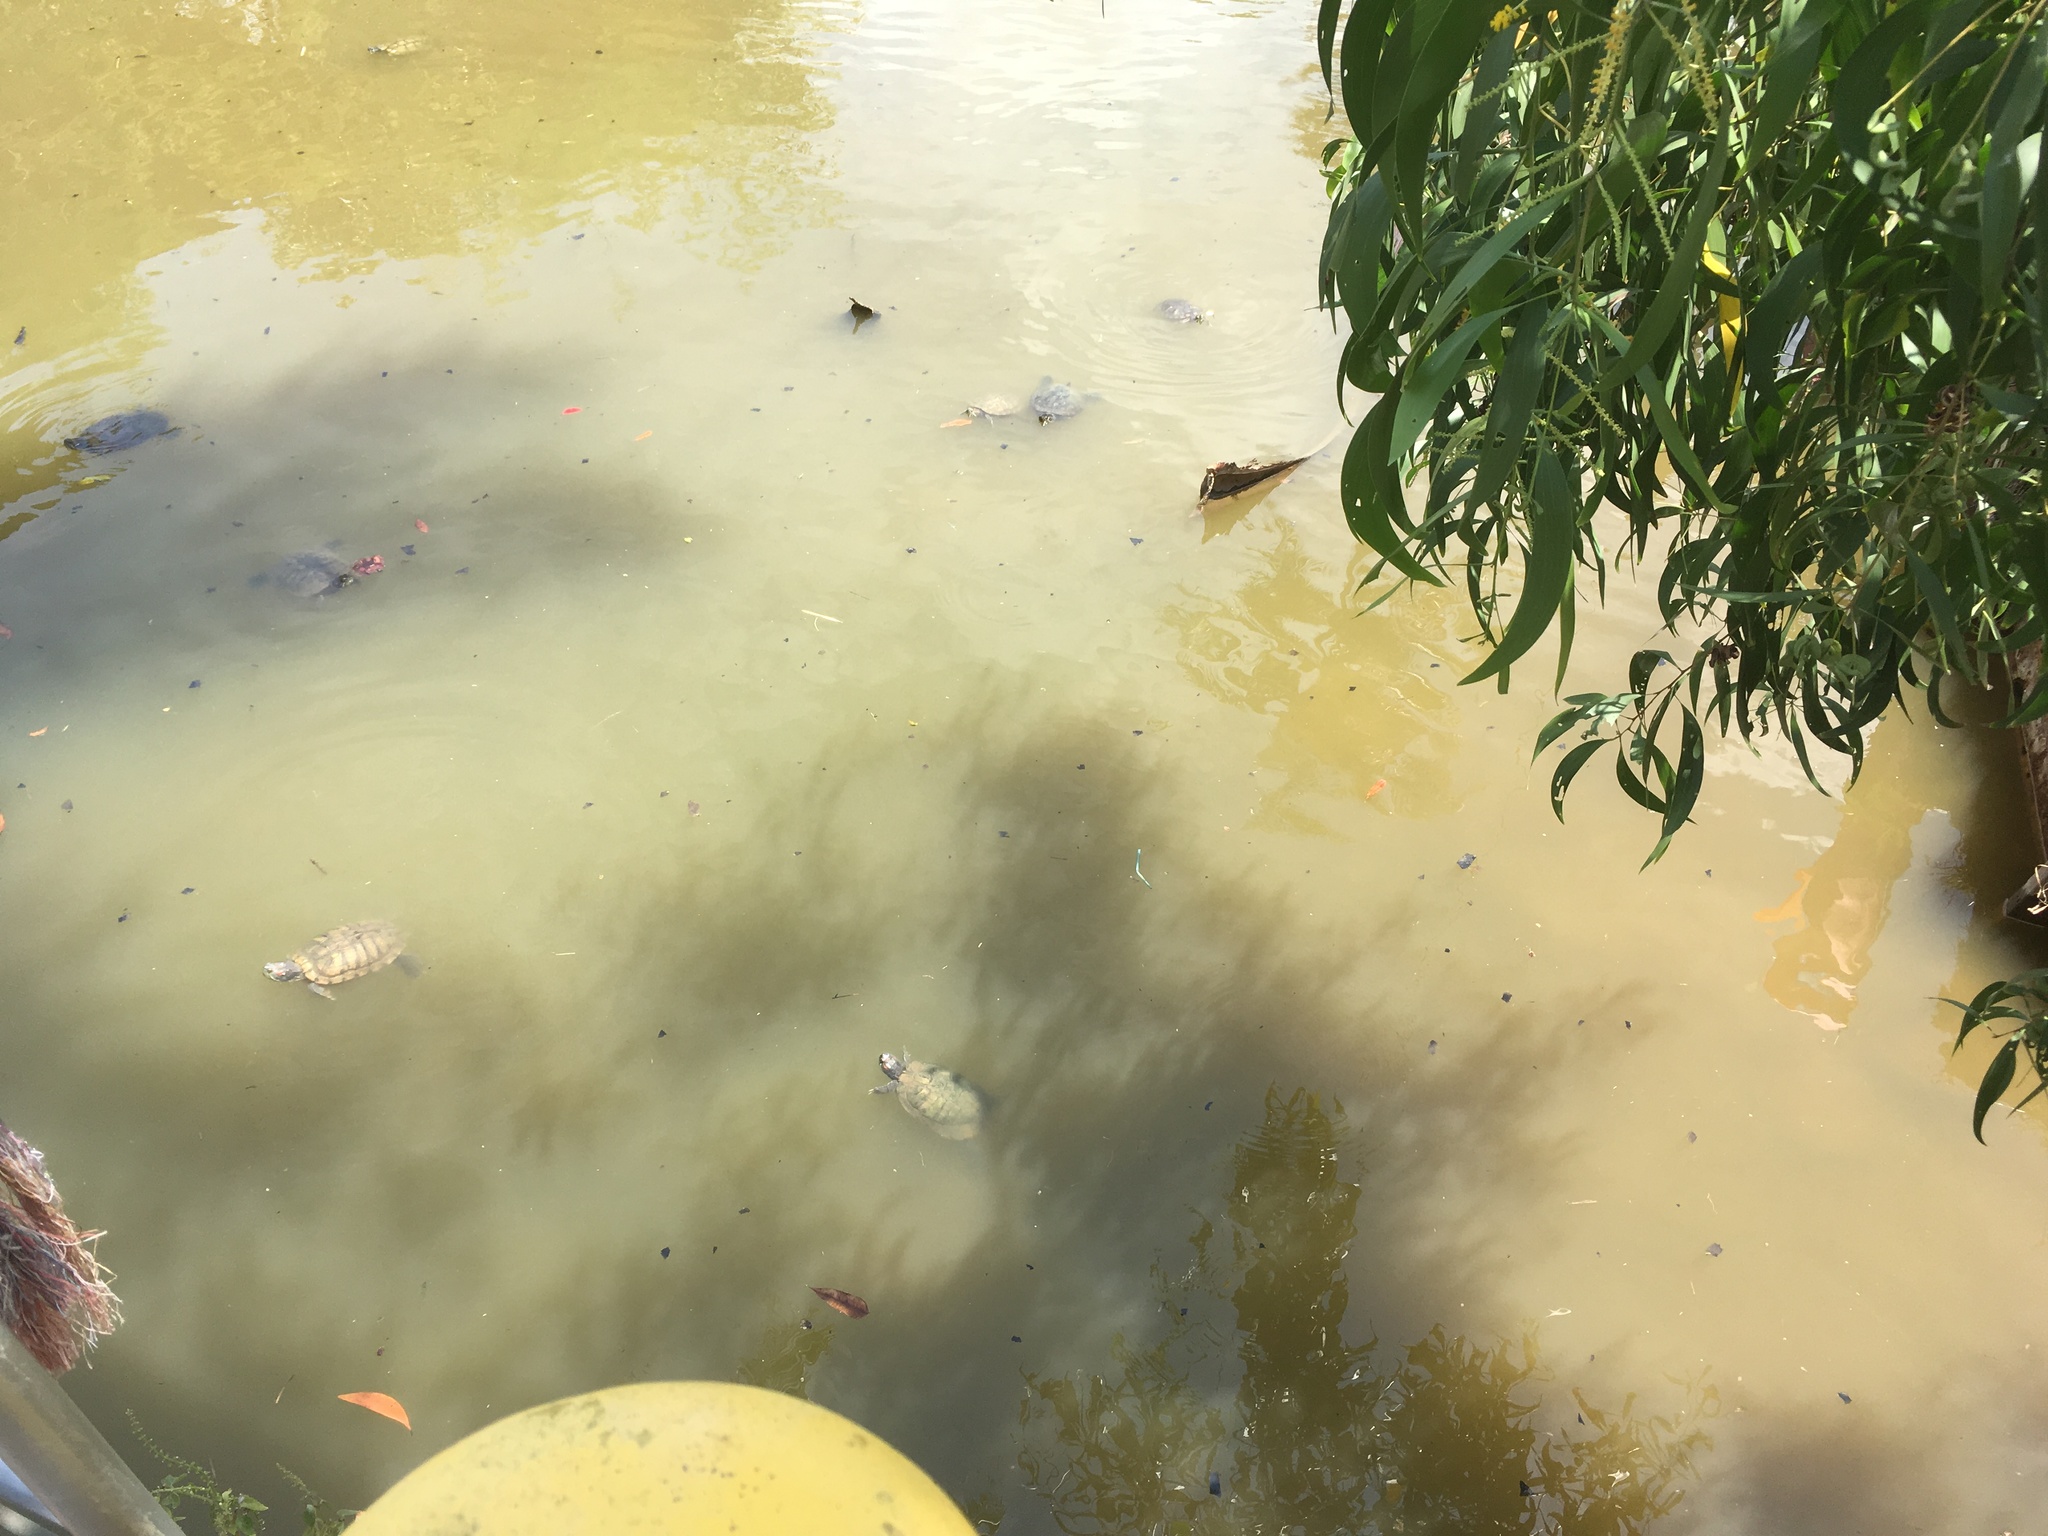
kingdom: Animalia
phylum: Chordata
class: Testudines
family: Emydidae
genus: Trachemys
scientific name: Trachemys scripta
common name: Slider
